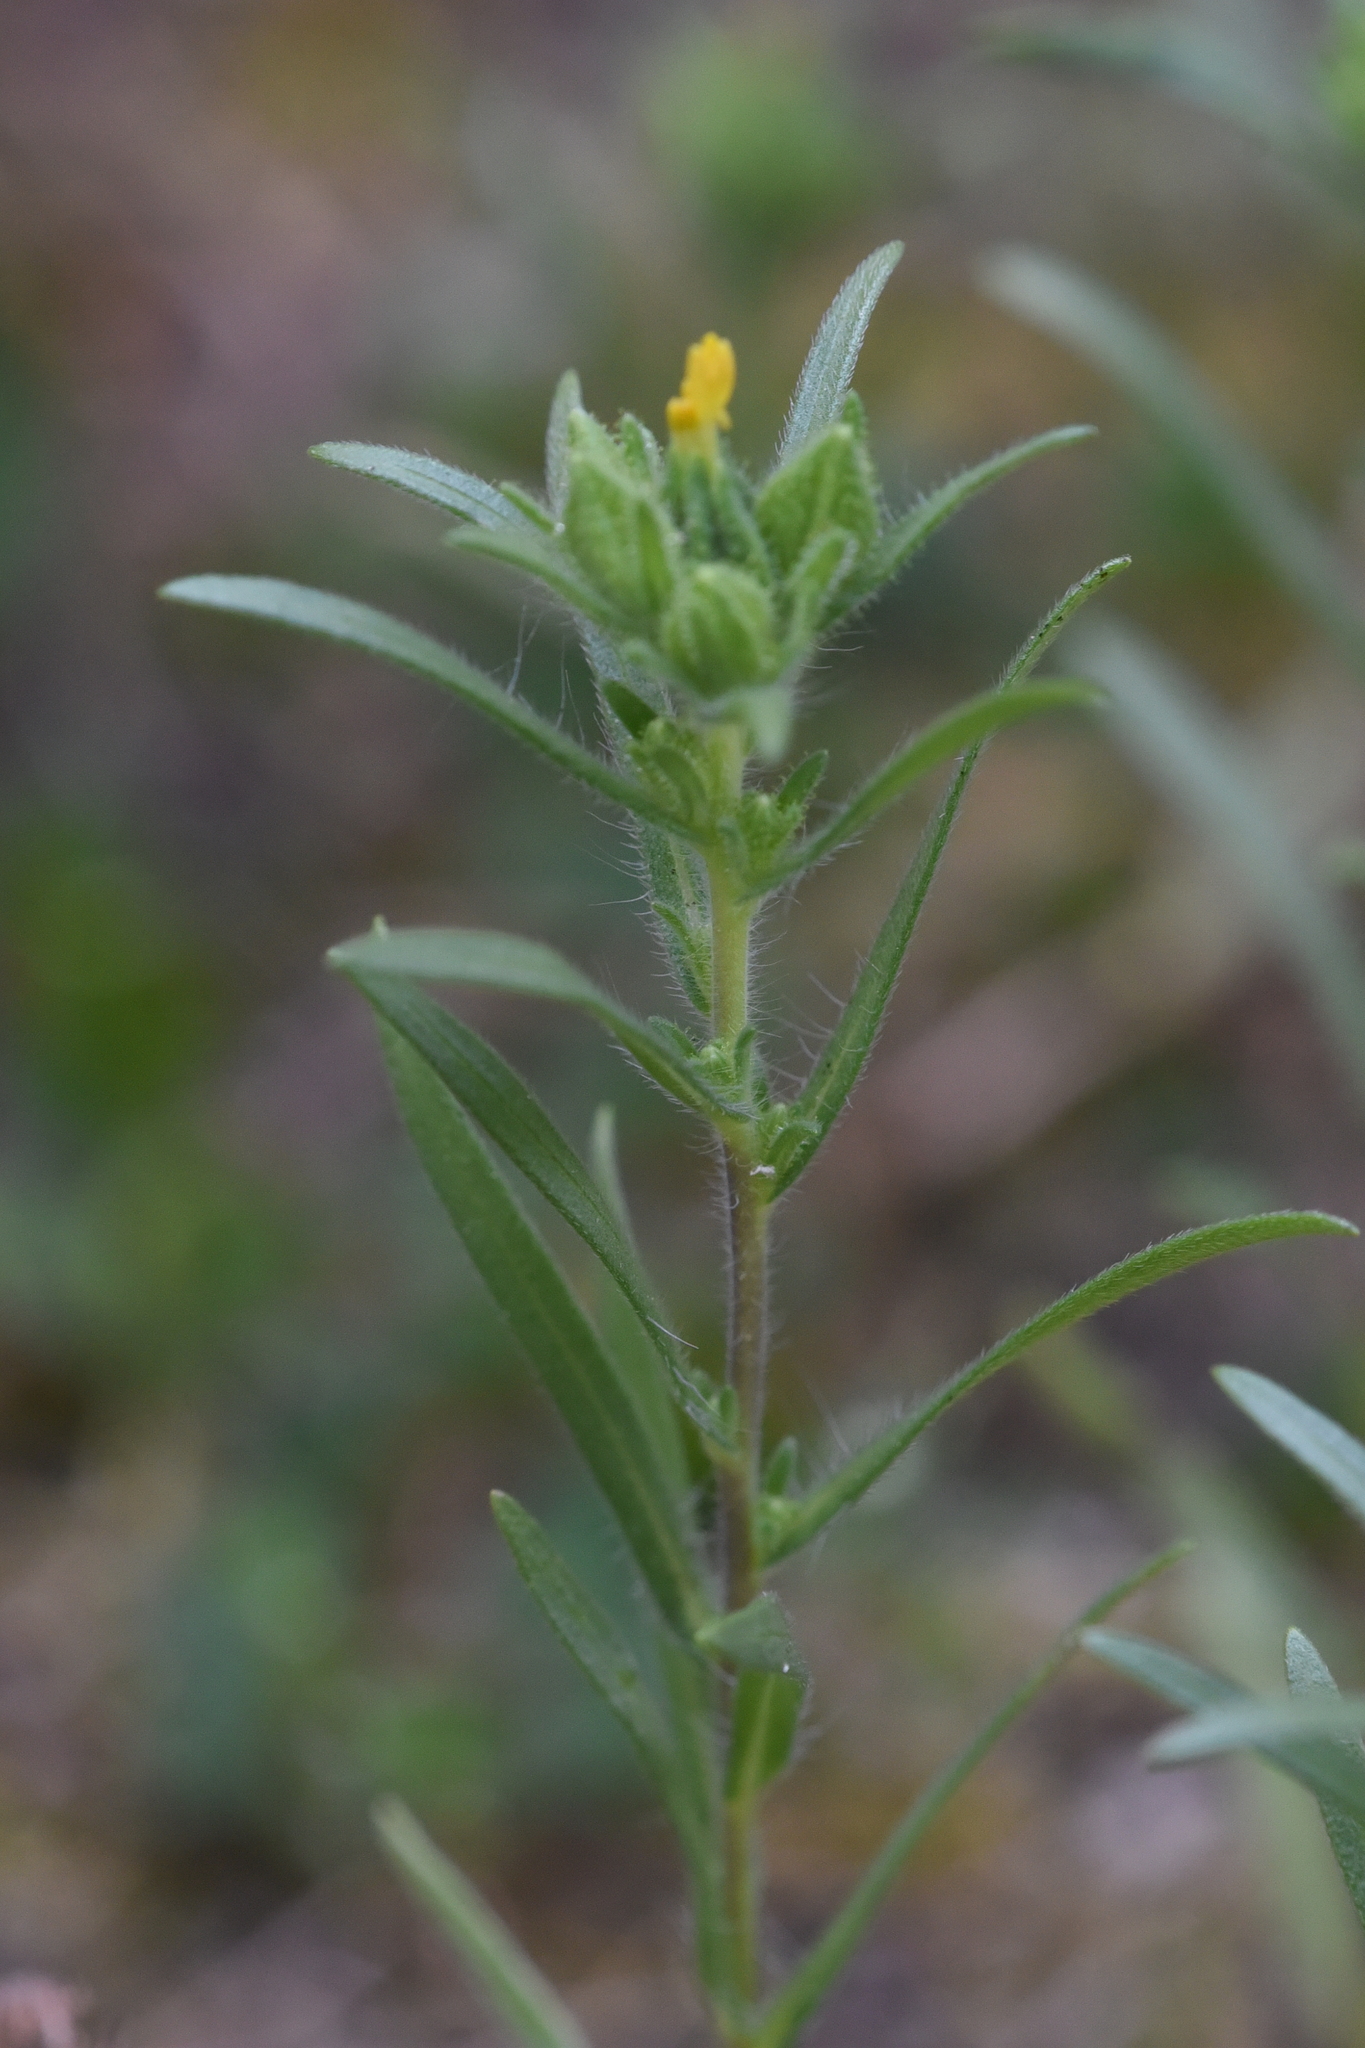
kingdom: Plantae
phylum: Tracheophyta
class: Magnoliopsida
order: Asterales
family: Asteraceae
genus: Madia
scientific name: Madia glomerata
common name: Mountain tarweed
